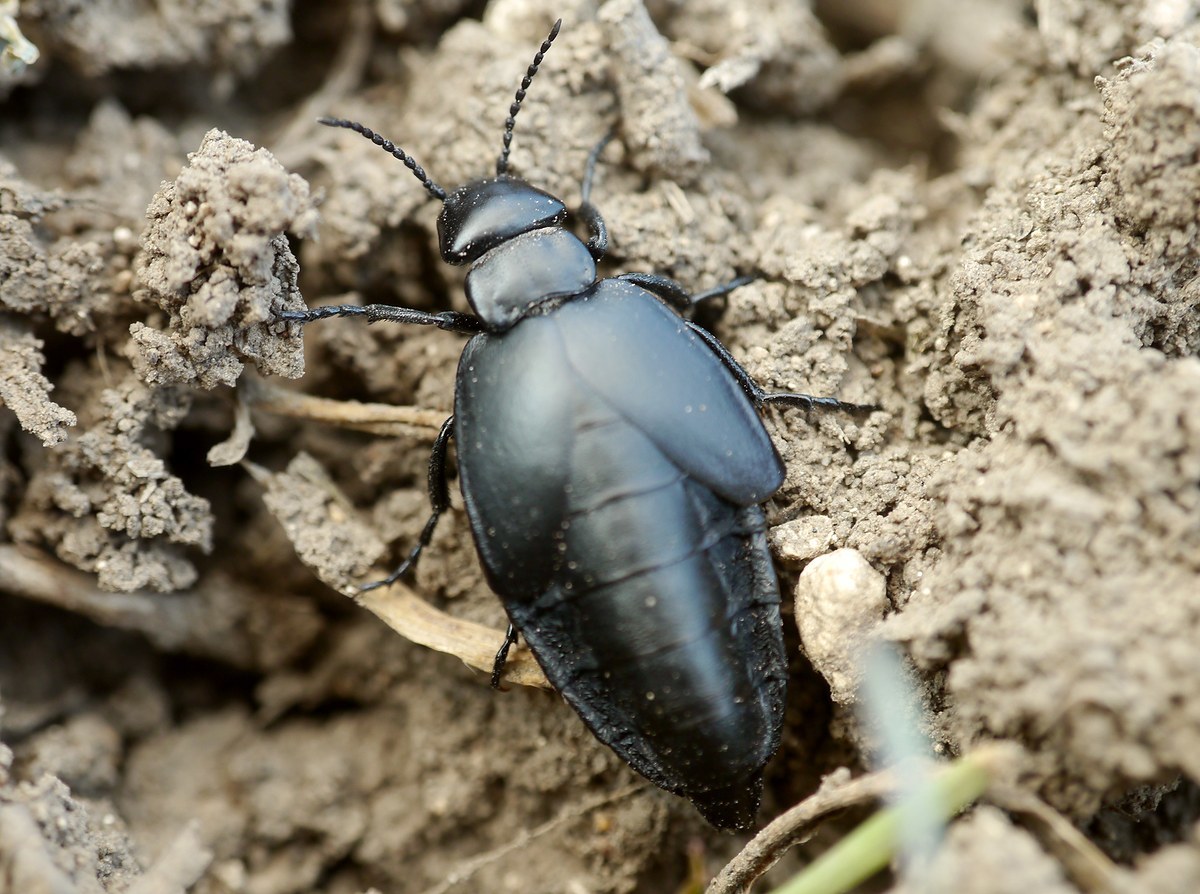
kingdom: Animalia
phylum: Arthropoda
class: Insecta
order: Coleoptera
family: Meloidae
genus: Meloe
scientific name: Meloe uralensis
